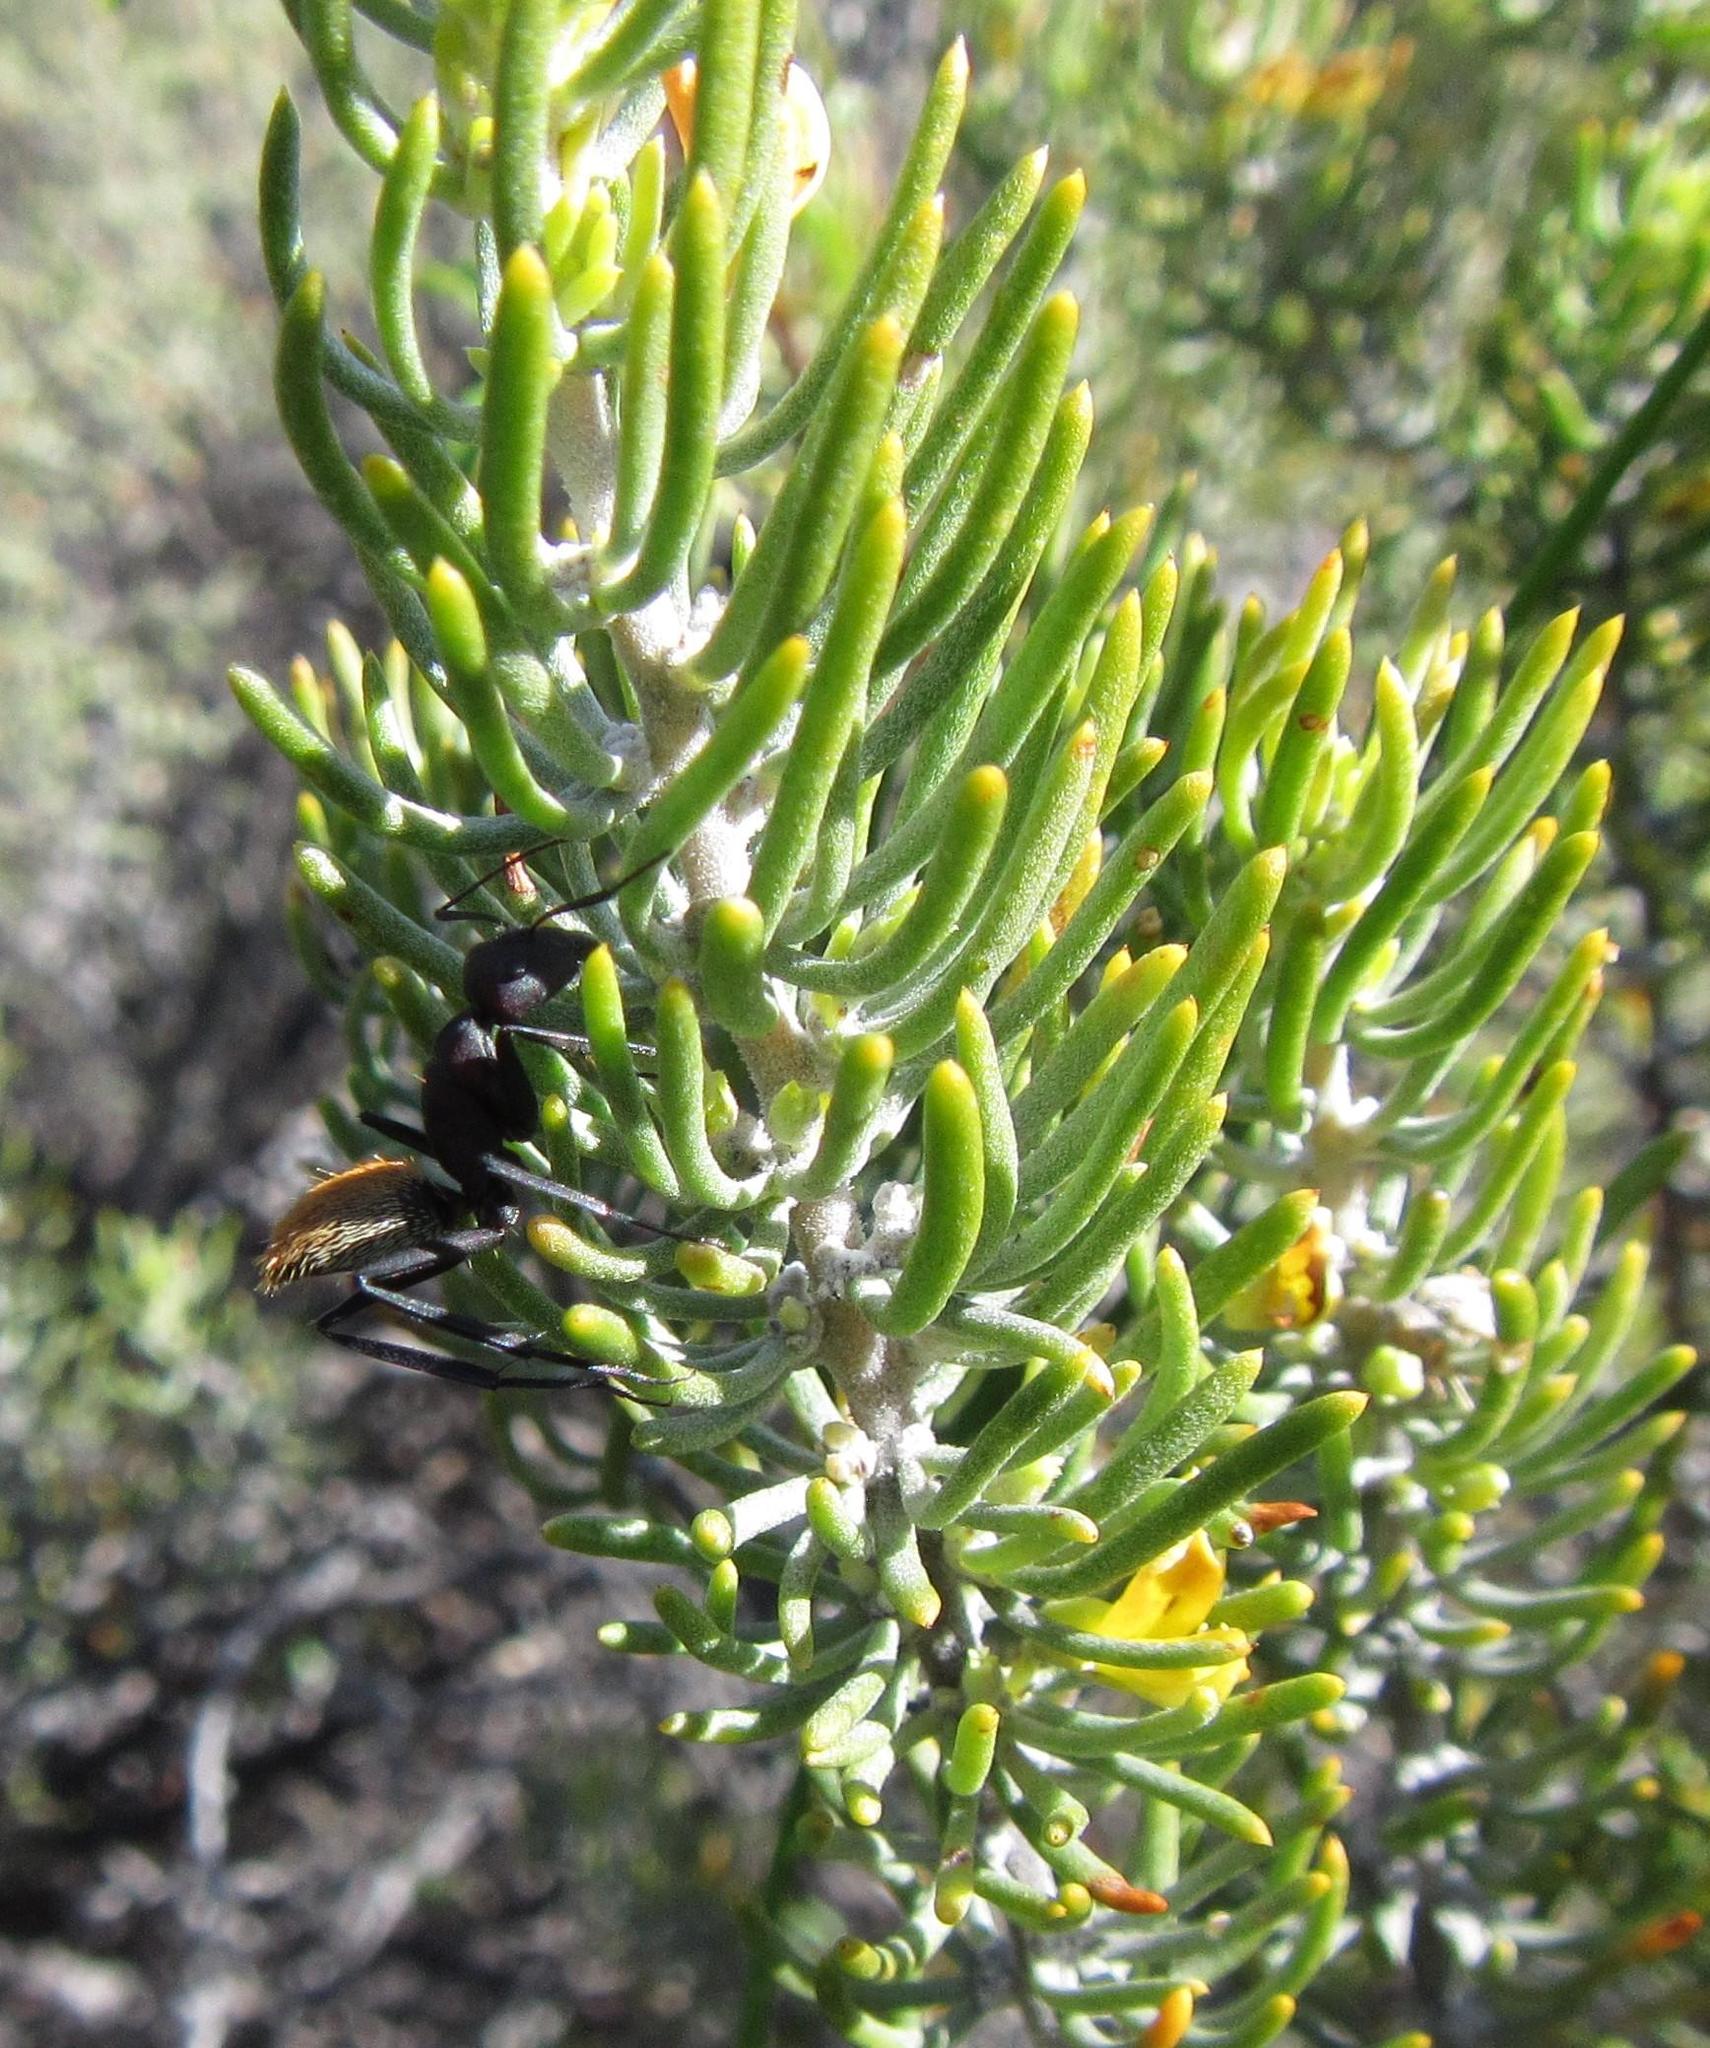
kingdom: Animalia
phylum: Arthropoda
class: Insecta
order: Hymenoptera
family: Formicidae
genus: Camponotus
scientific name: Camponotus fulvopilosus
